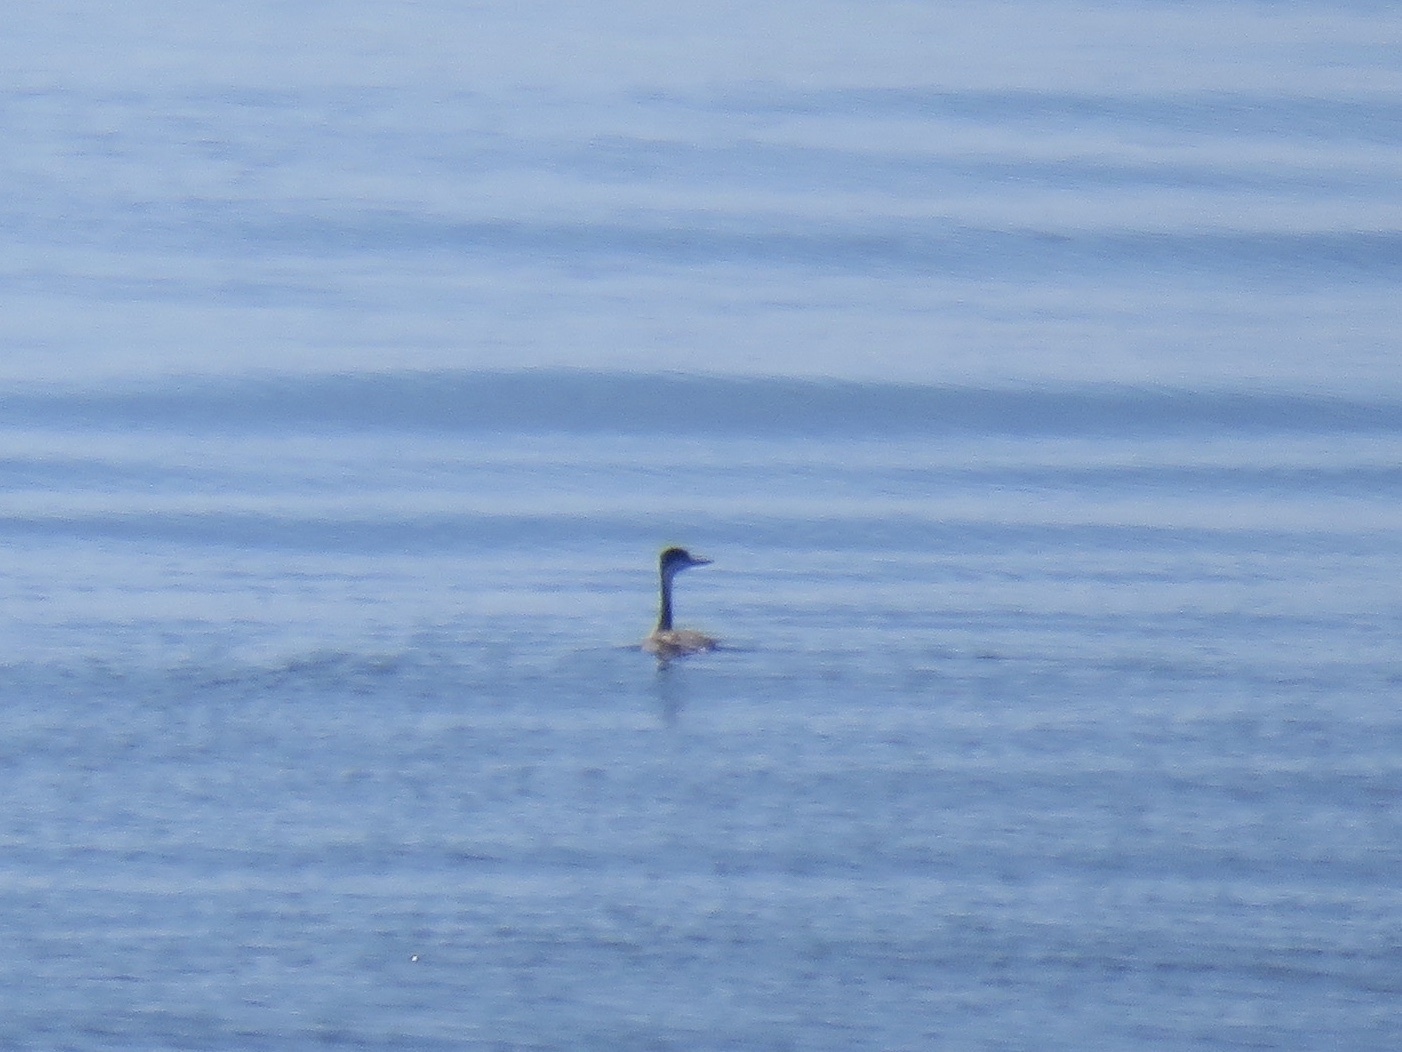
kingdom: Animalia
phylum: Chordata
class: Aves
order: Podicipediformes
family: Podicipedidae
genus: Aechmophorus
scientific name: Aechmophorus occidentalis
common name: Western grebe
